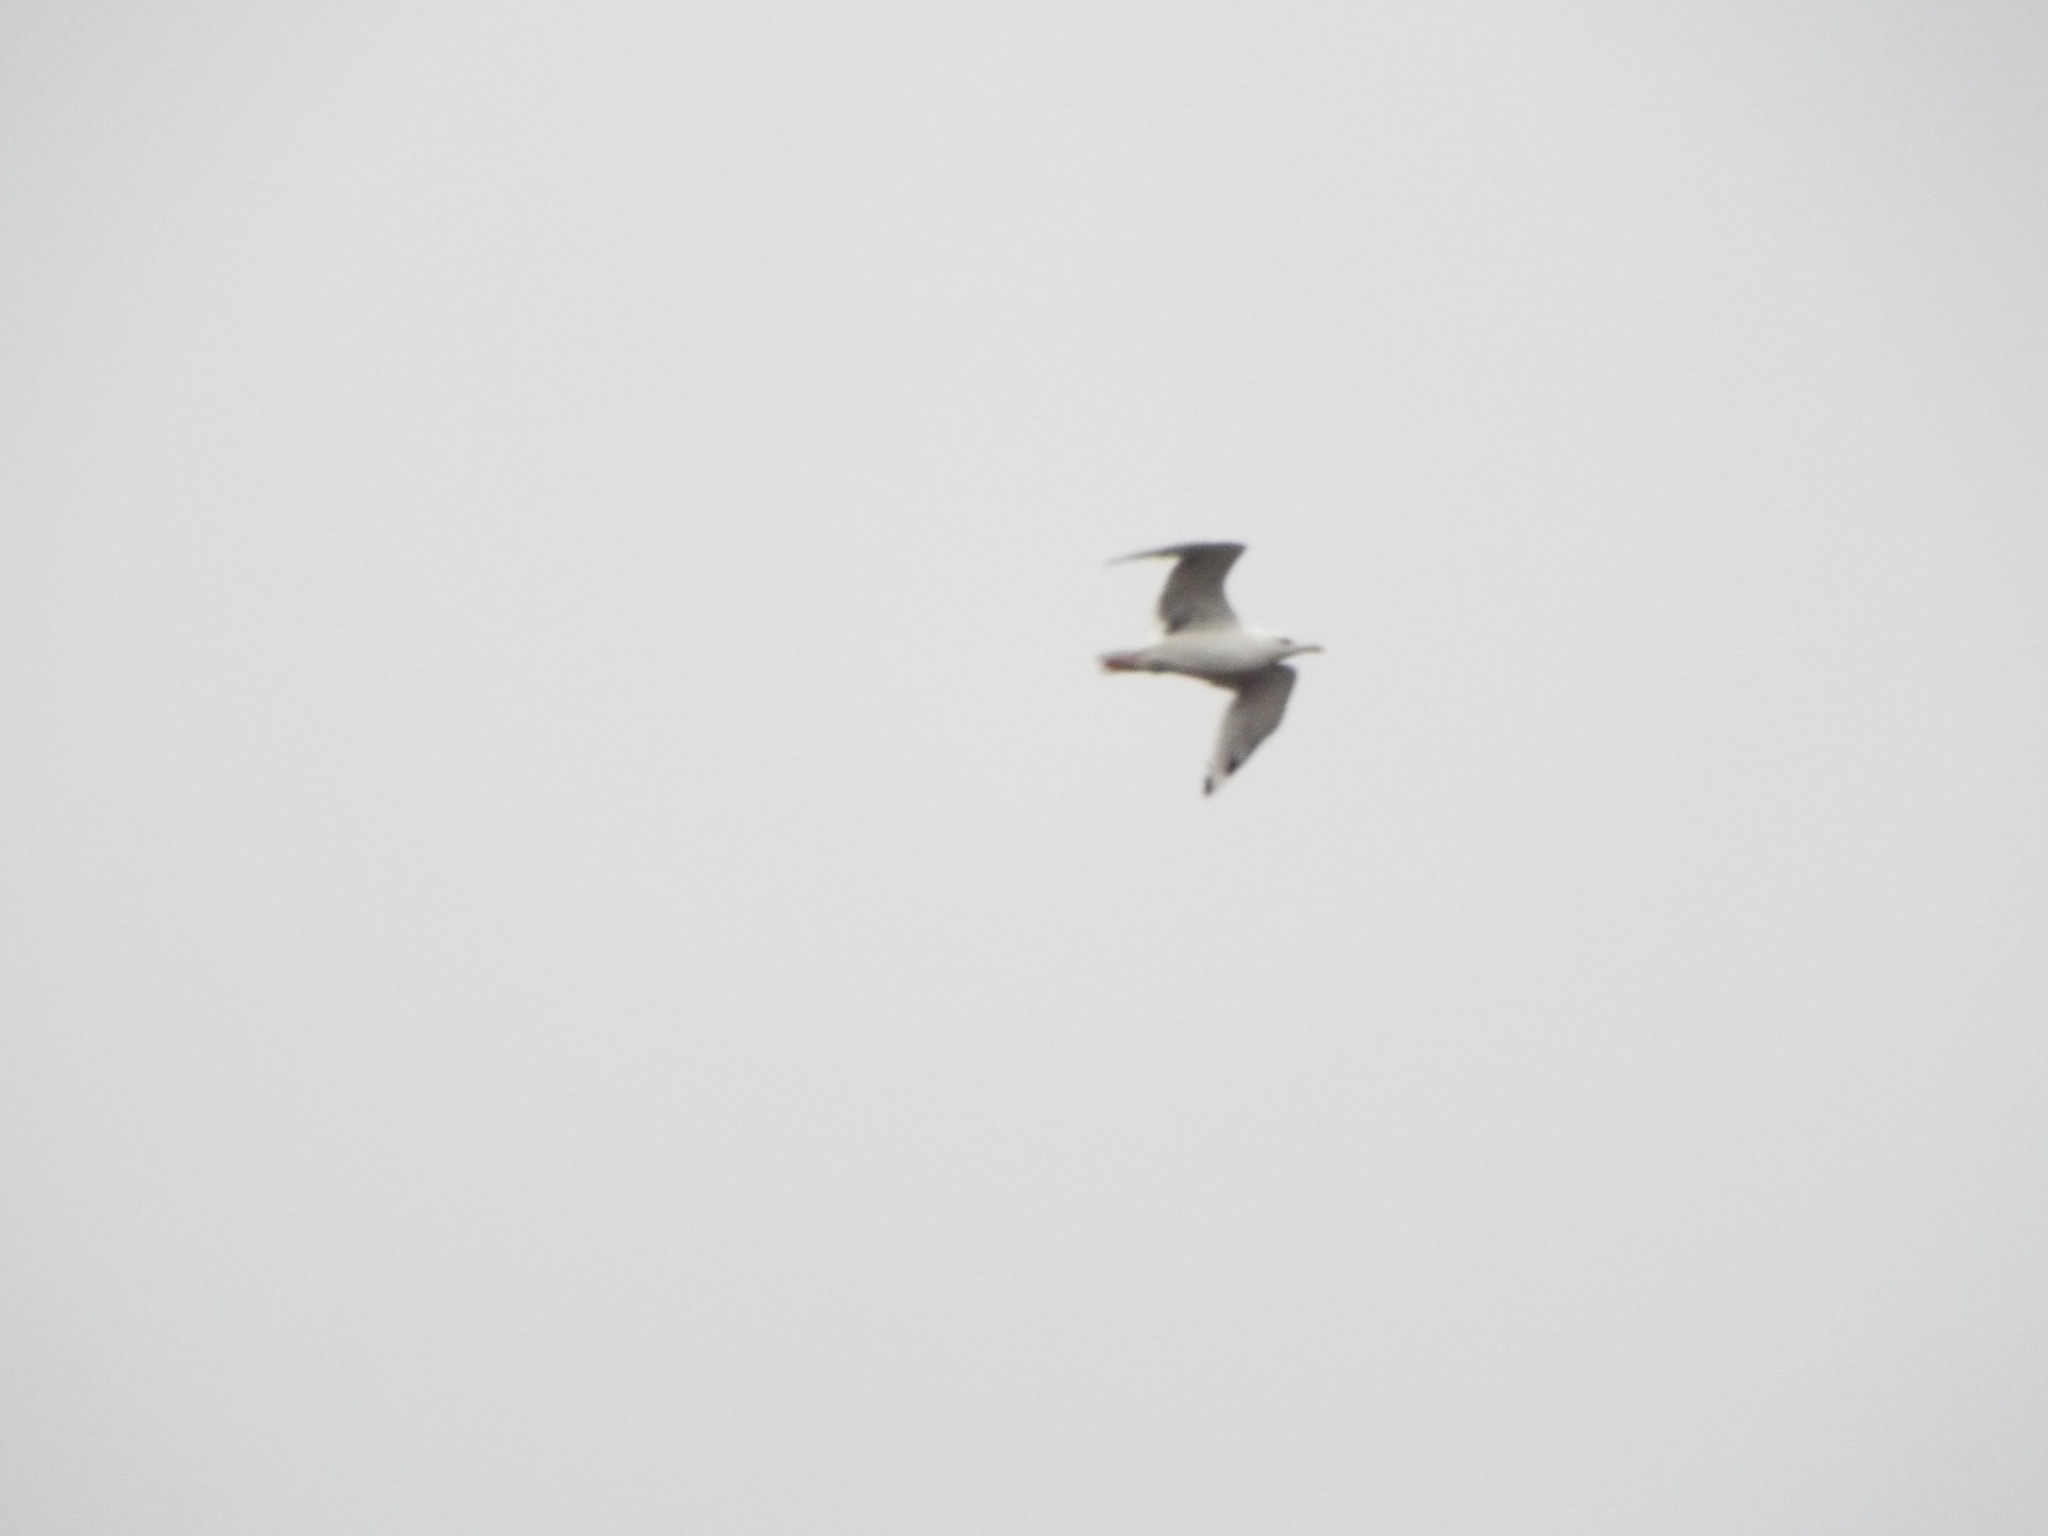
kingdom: Animalia
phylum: Chordata
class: Aves
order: Charadriiformes
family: Laridae
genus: Larus
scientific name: Larus argentatus
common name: Herring gull
